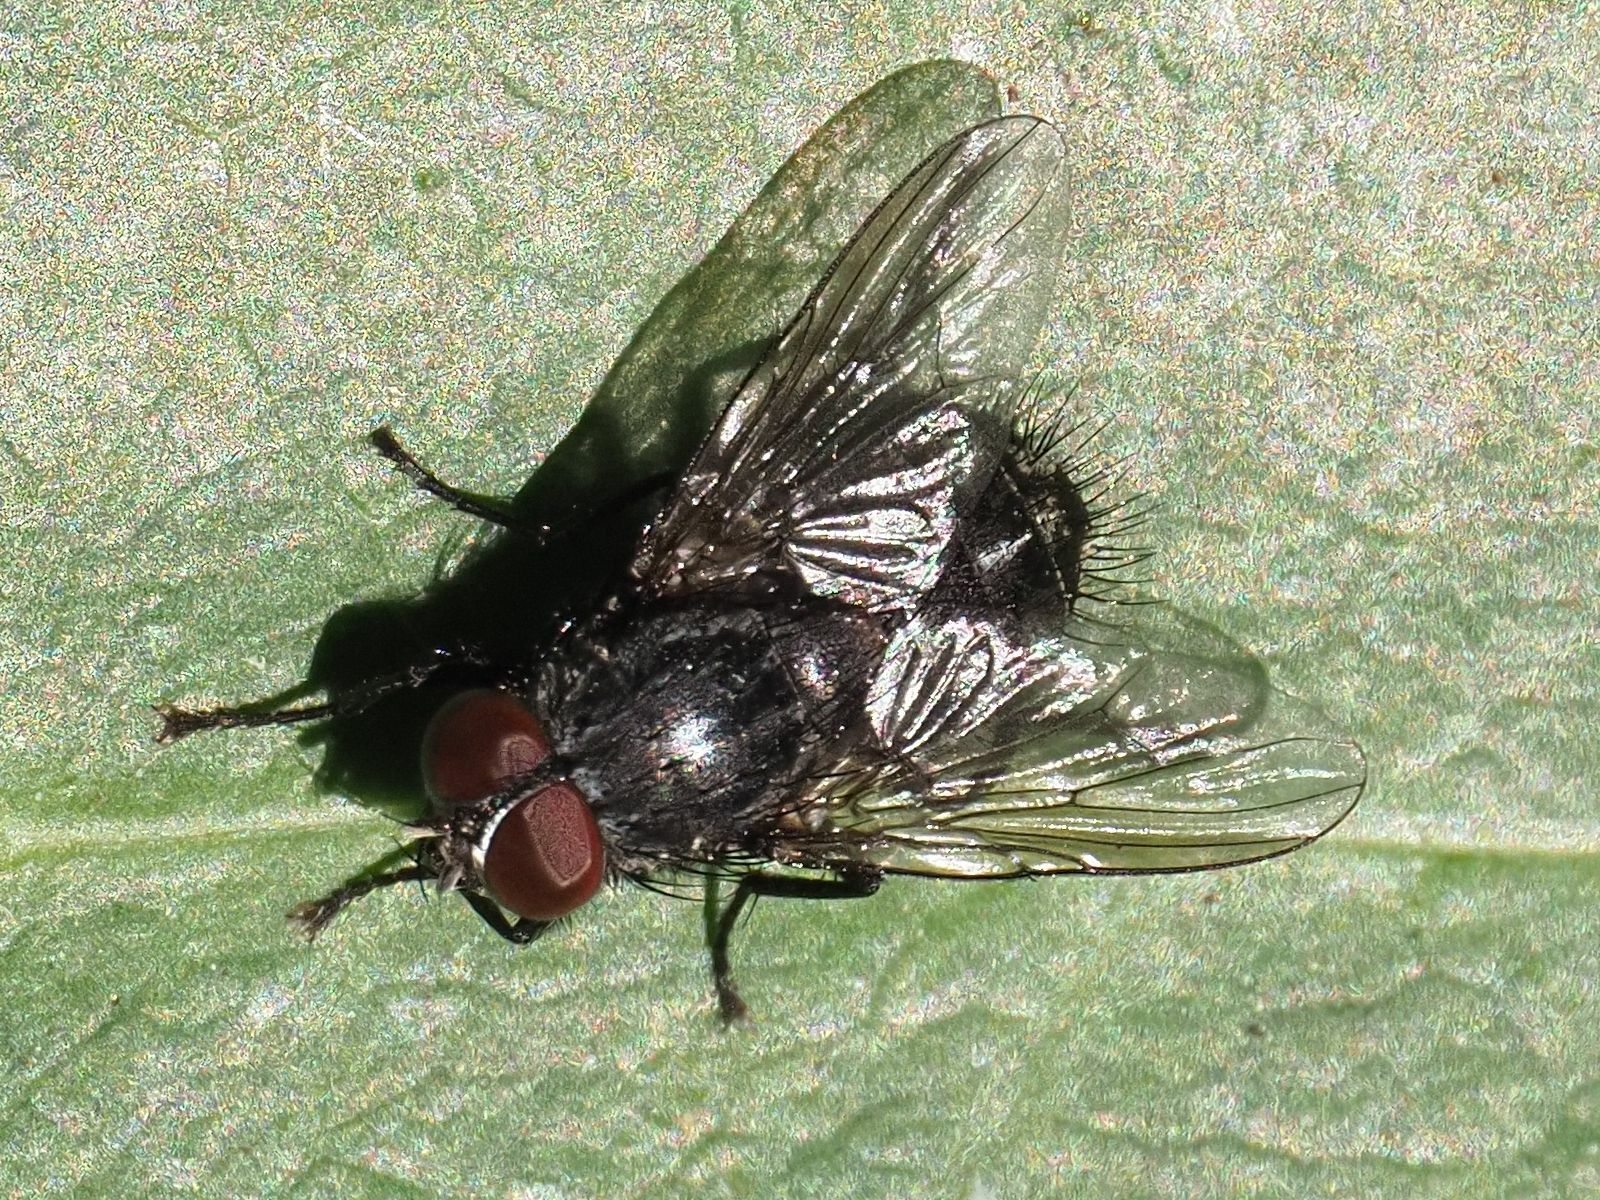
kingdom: Animalia
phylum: Arthropoda
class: Insecta
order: Diptera
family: Muscidae
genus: Muscina
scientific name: Muscina levida
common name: House fly
